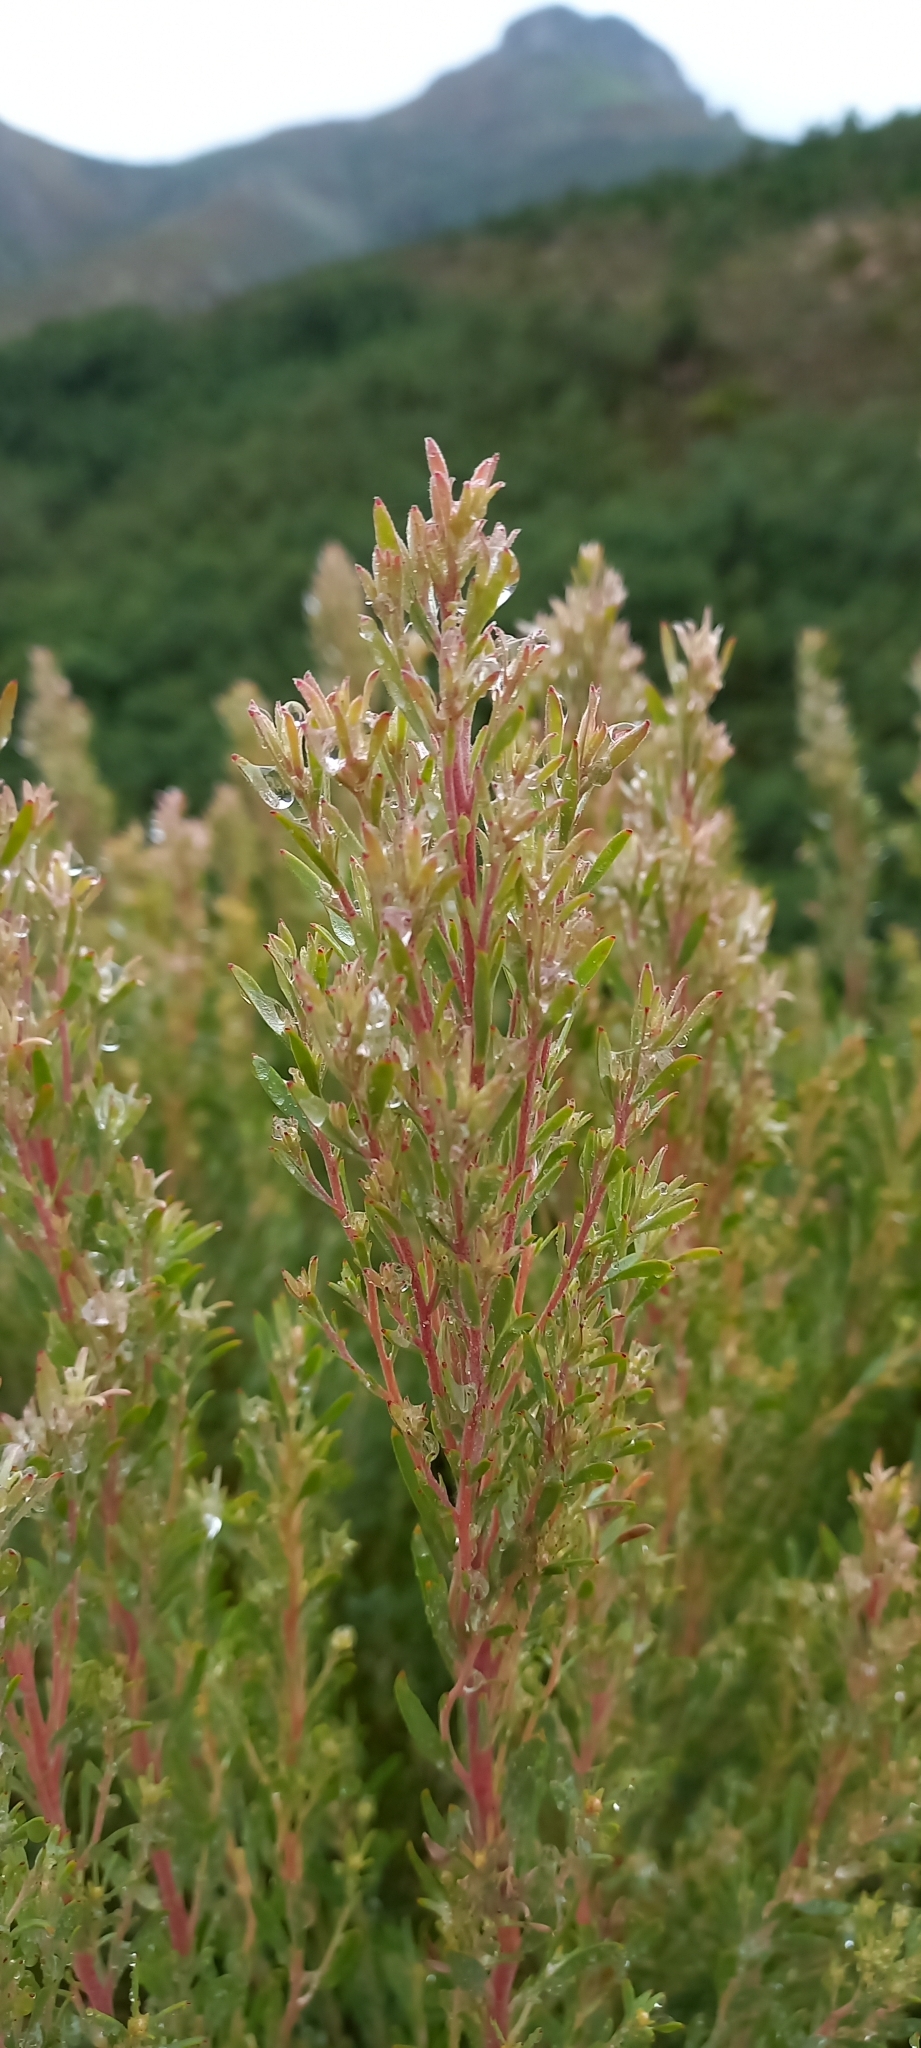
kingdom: Plantae
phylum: Tracheophyta
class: Magnoliopsida
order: Proteales
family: Proteaceae
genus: Leucadendron
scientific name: Leucadendron rubrum
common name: Spinning top
